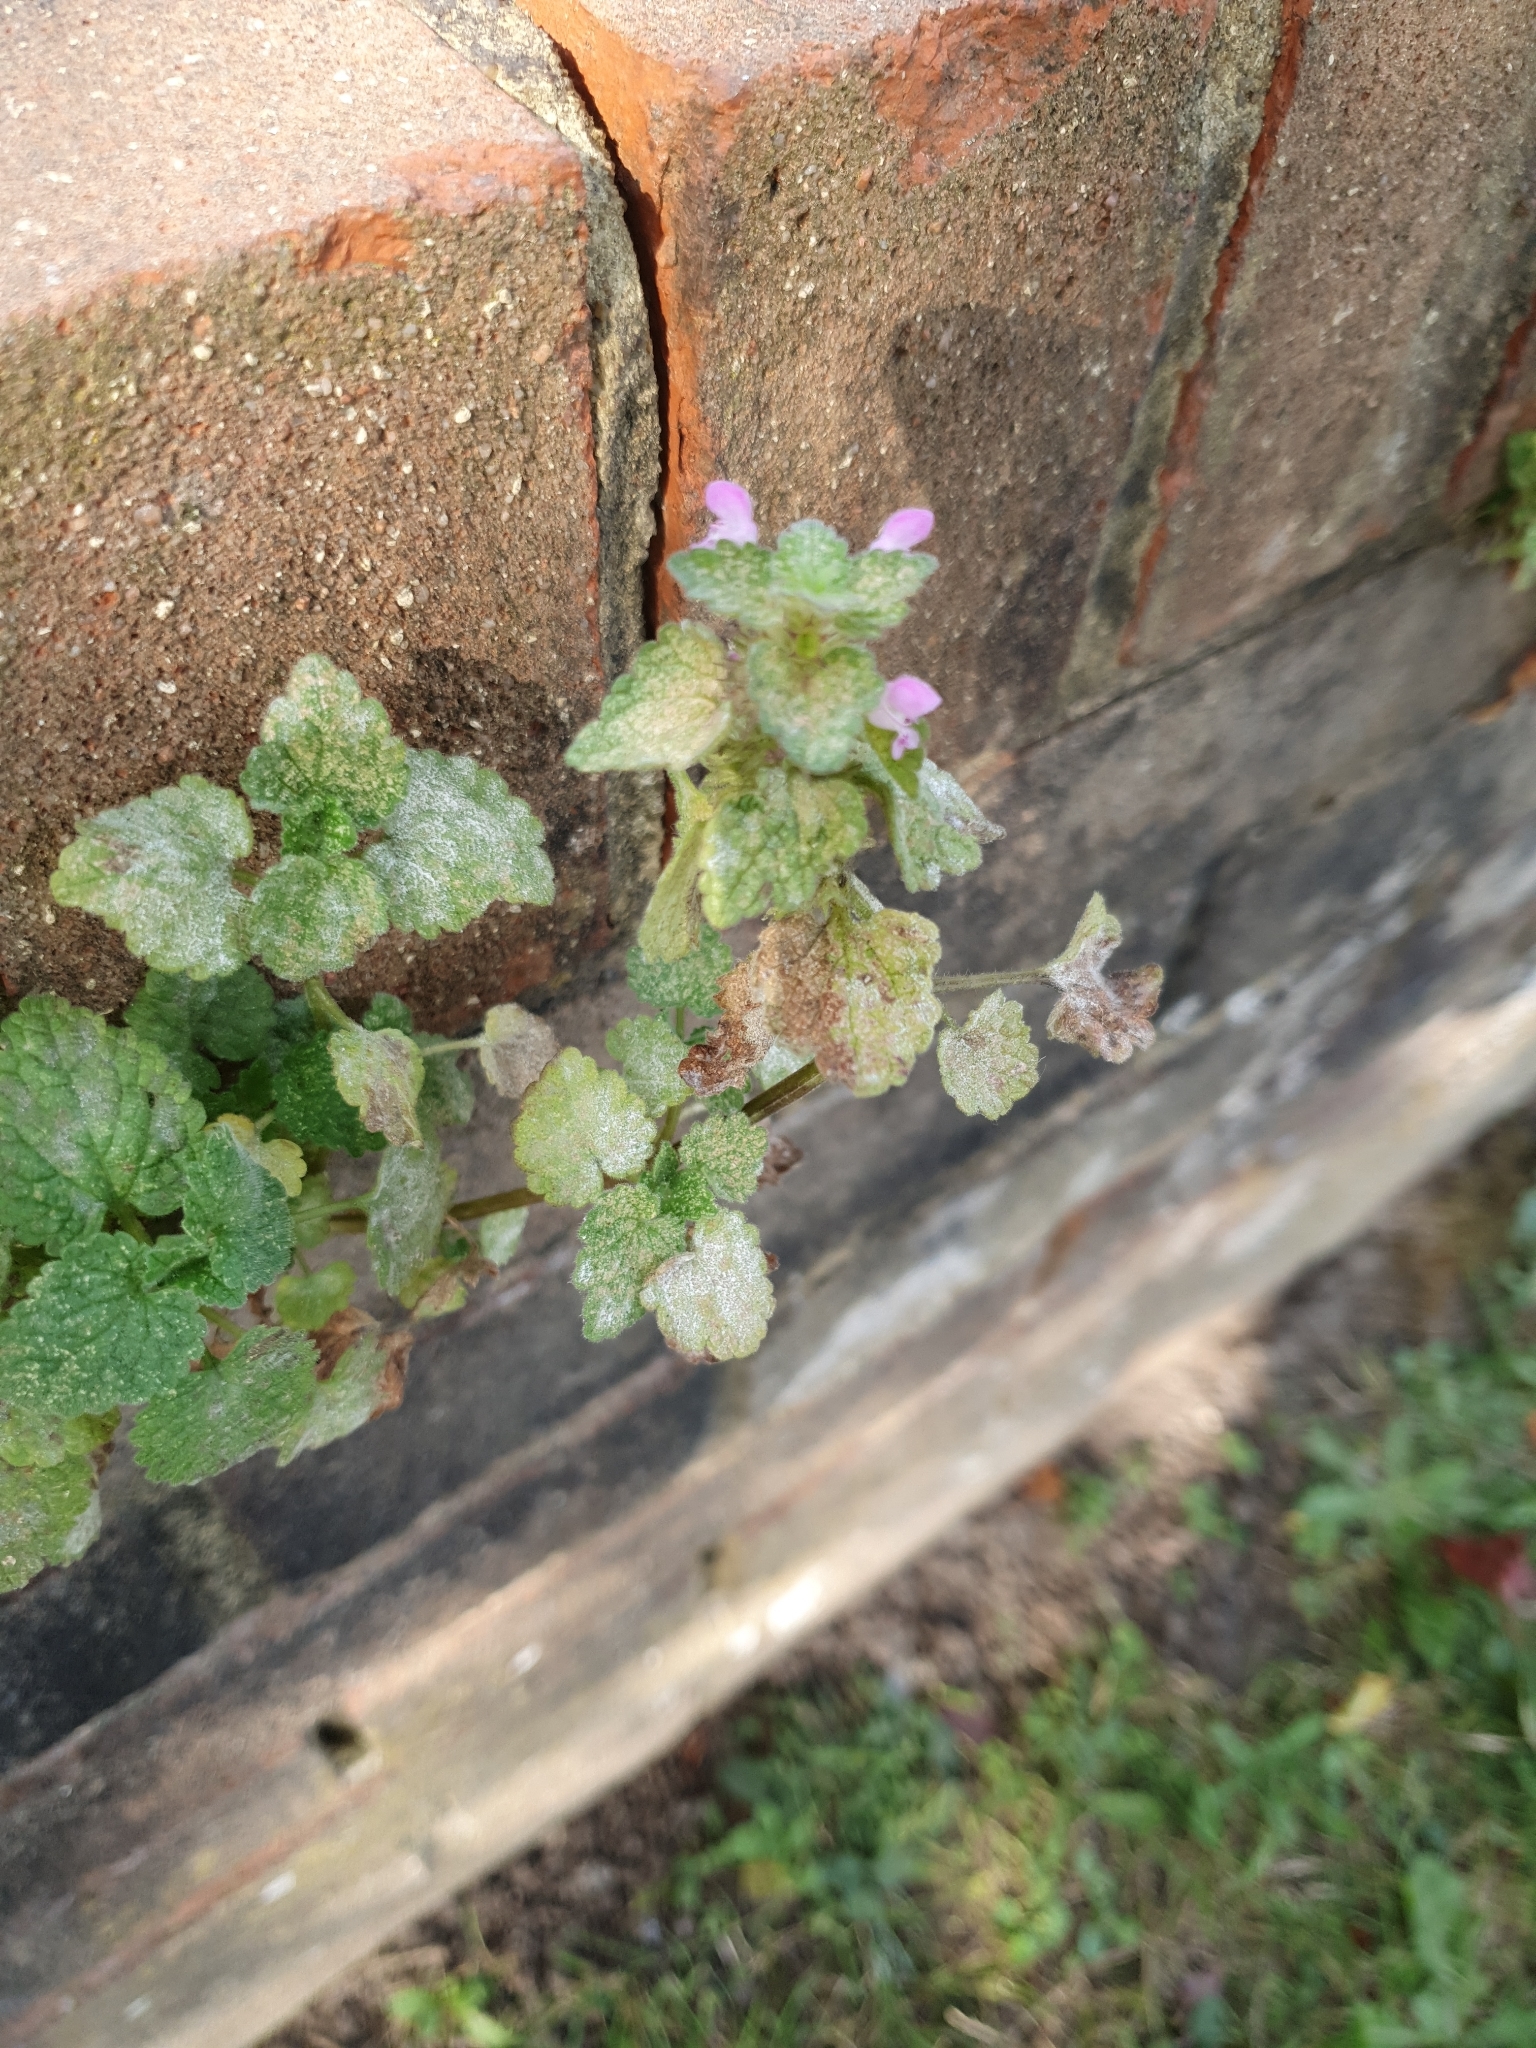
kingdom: Plantae
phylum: Tracheophyta
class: Magnoliopsida
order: Lamiales
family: Lamiaceae
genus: Lamium
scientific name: Lamium purpureum
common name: Red dead-nettle
